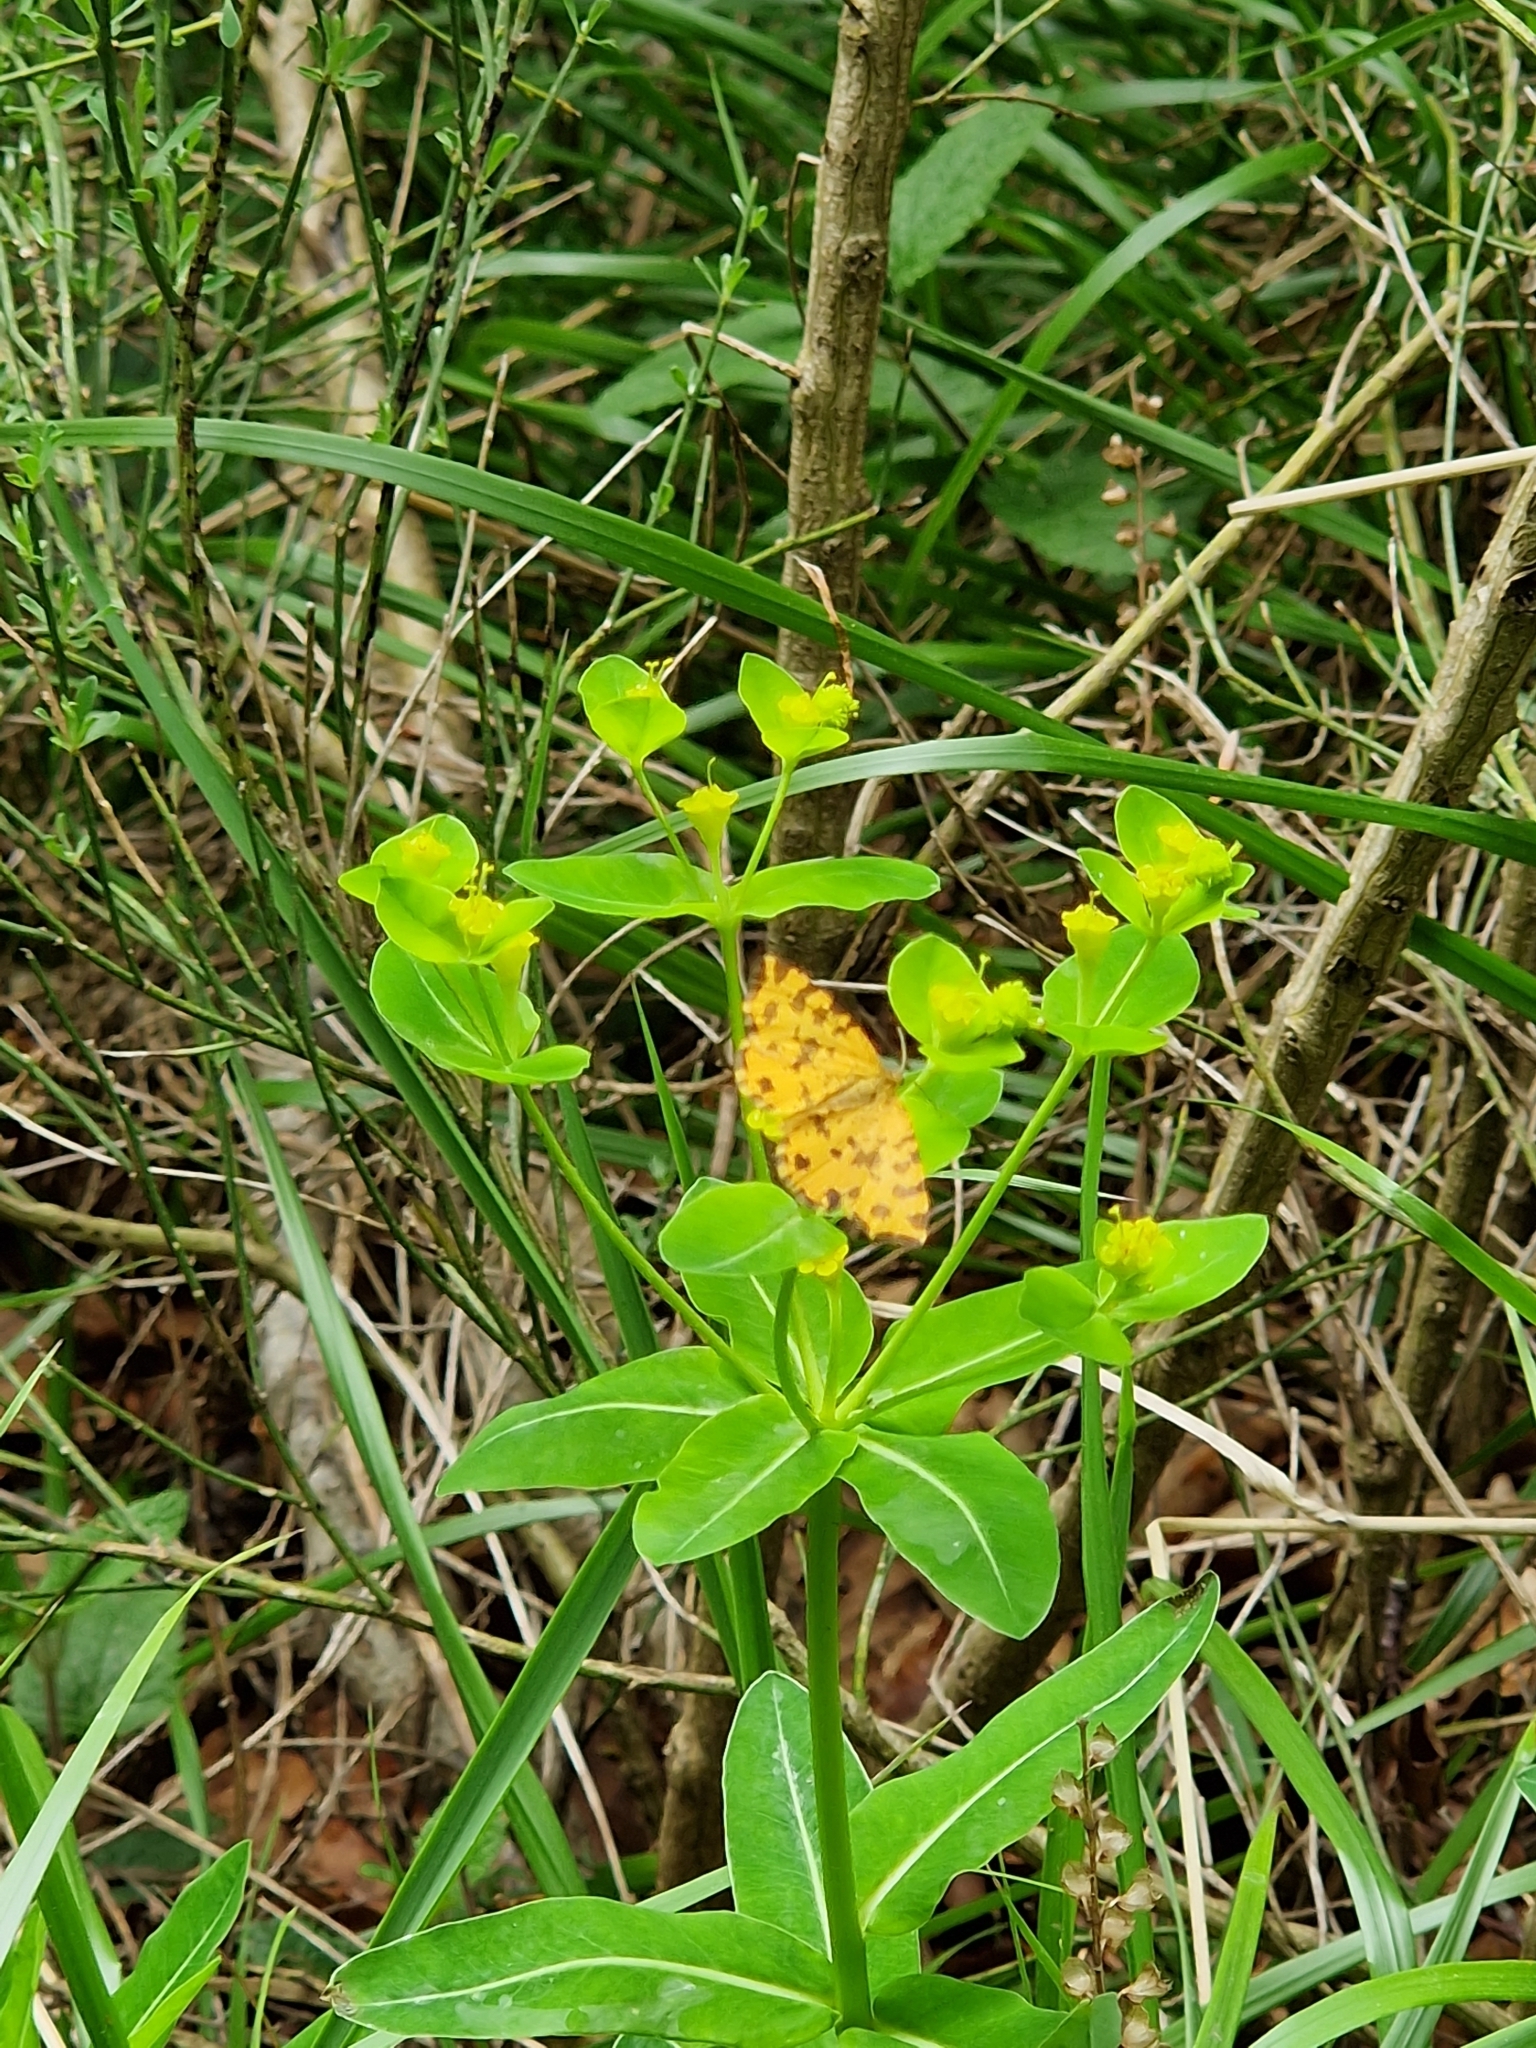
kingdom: Animalia
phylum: Arthropoda
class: Insecta
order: Lepidoptera
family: Geometridae
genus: Pseudopanthera
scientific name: Pseudopanthera macularia
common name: Speckled yellow
